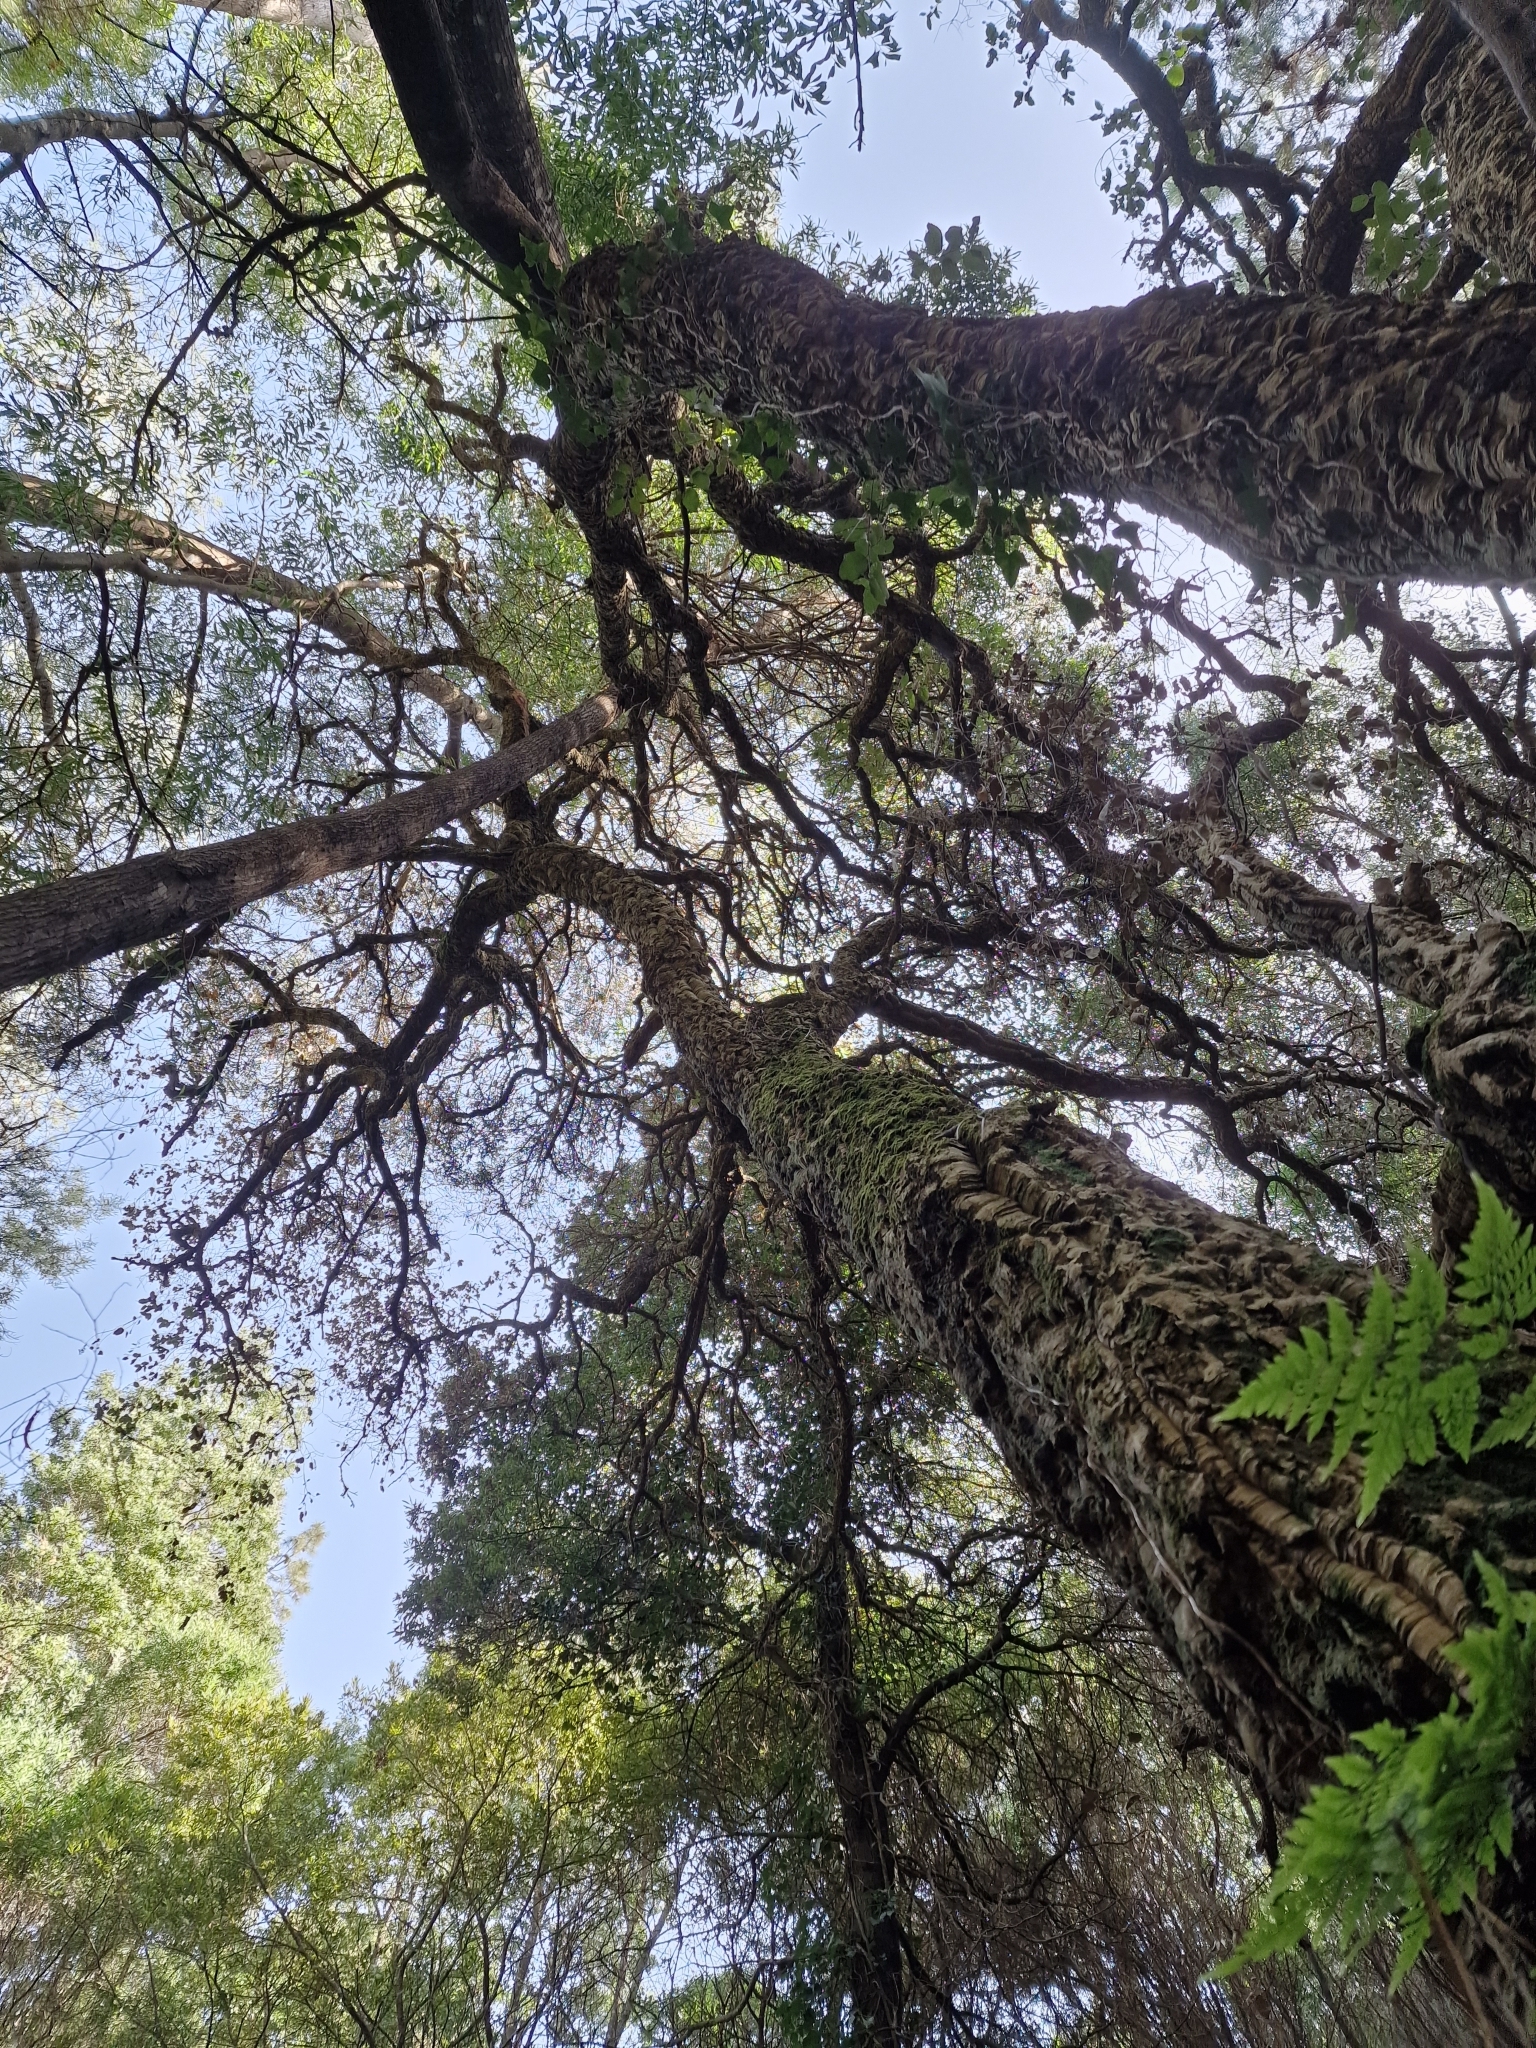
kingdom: Plantae
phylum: Tracheophyta
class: Magnoliopsida
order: Fagales
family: Fagaceae
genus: Quercus
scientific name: Quercus suber
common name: Cork oak
